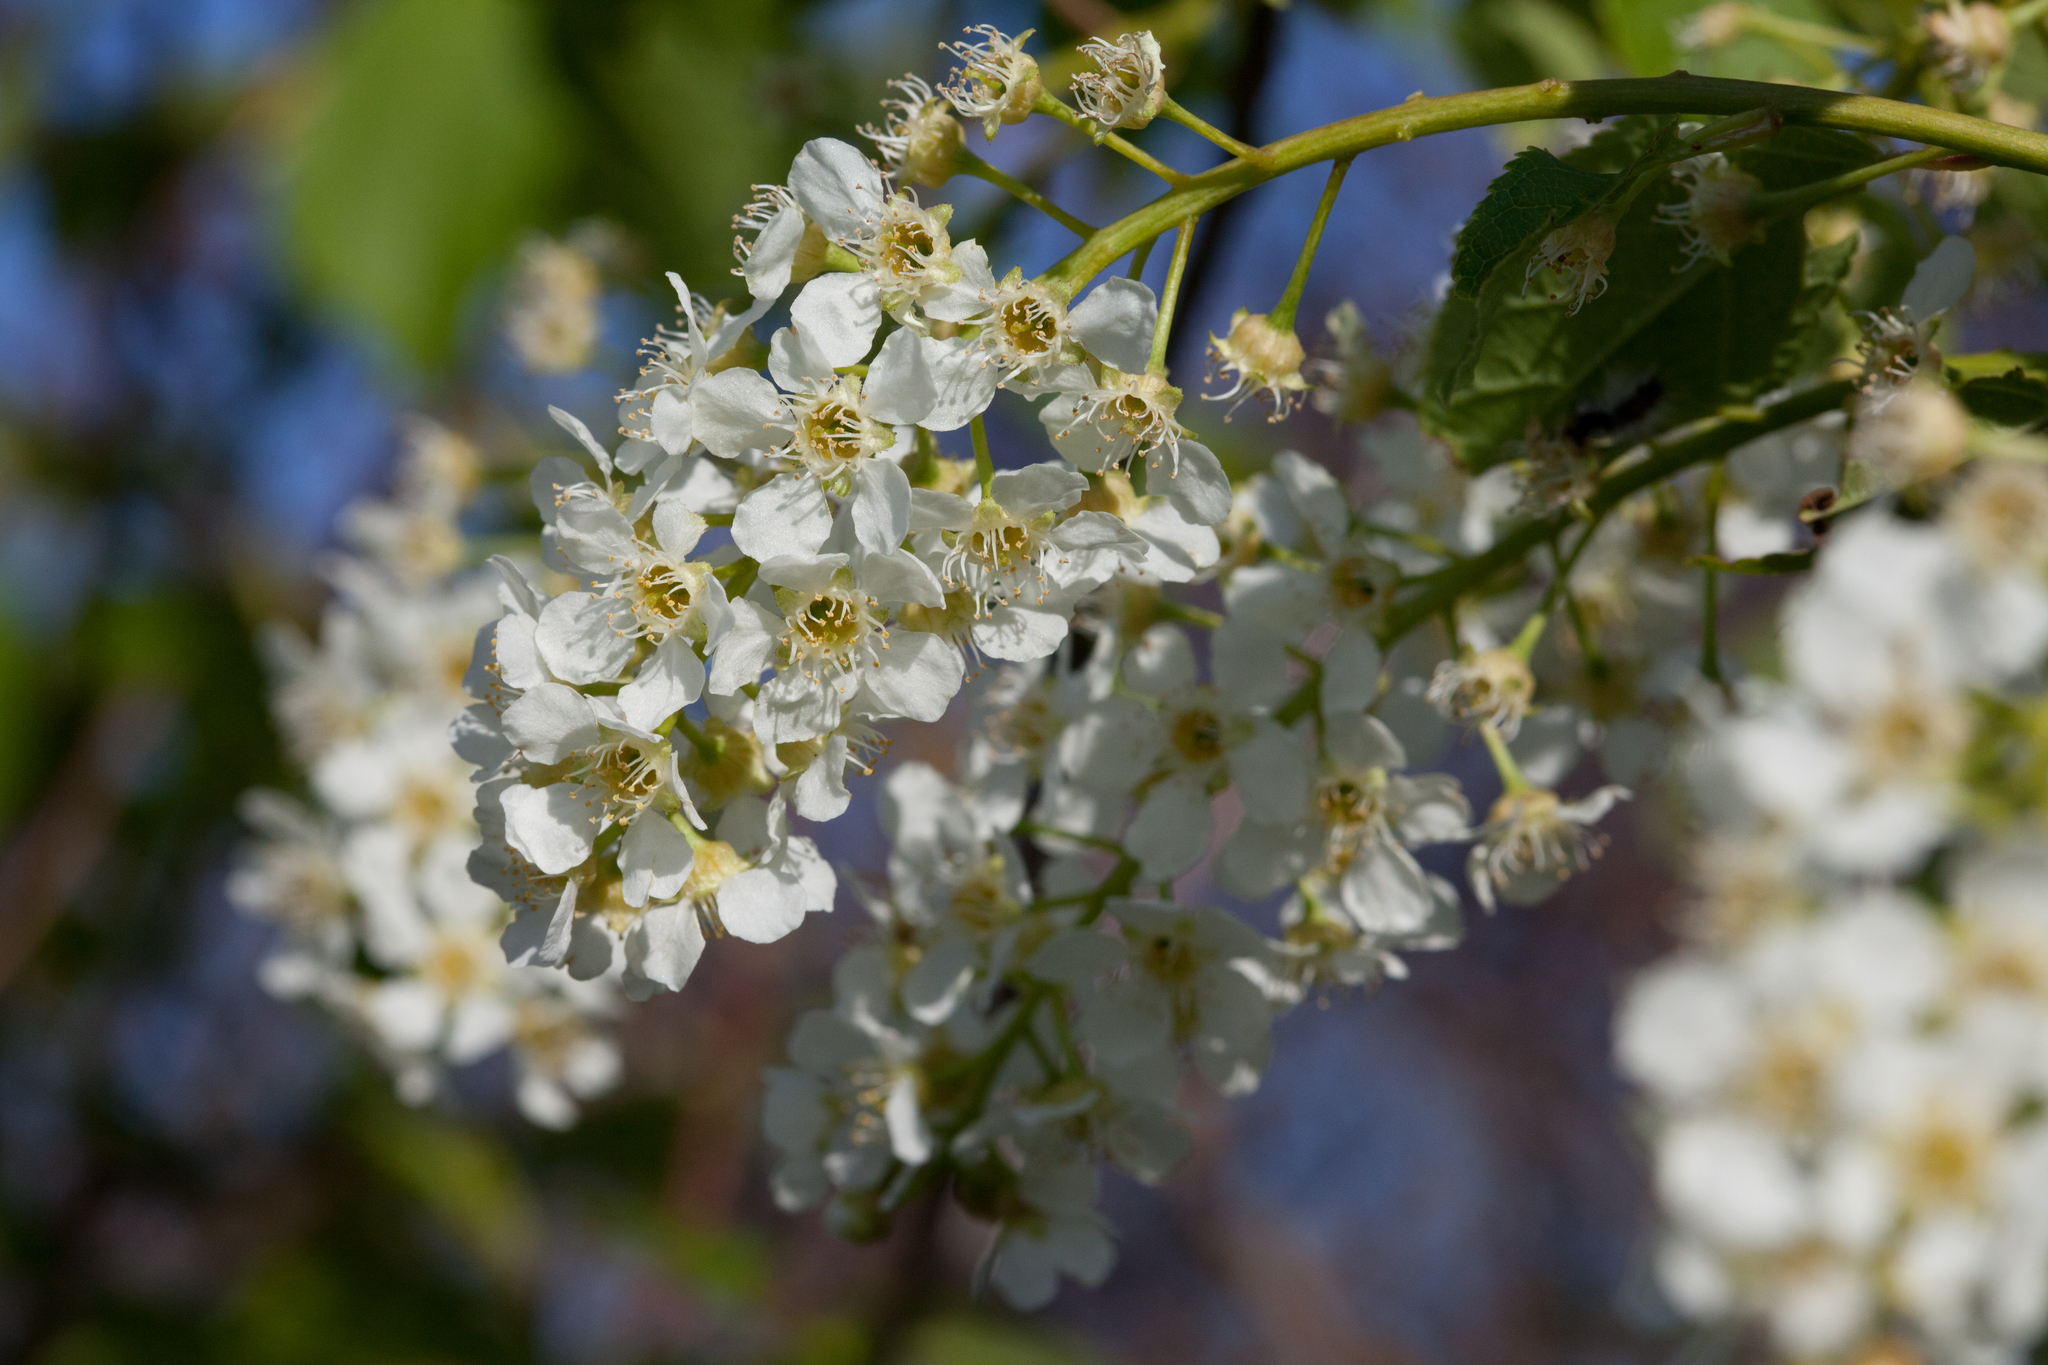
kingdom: Plantae
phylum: Tracheophyta
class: Magnoliopsida
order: Rosales
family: Rosaceae
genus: Prunus
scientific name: Prunus padus
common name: Bird cherry
